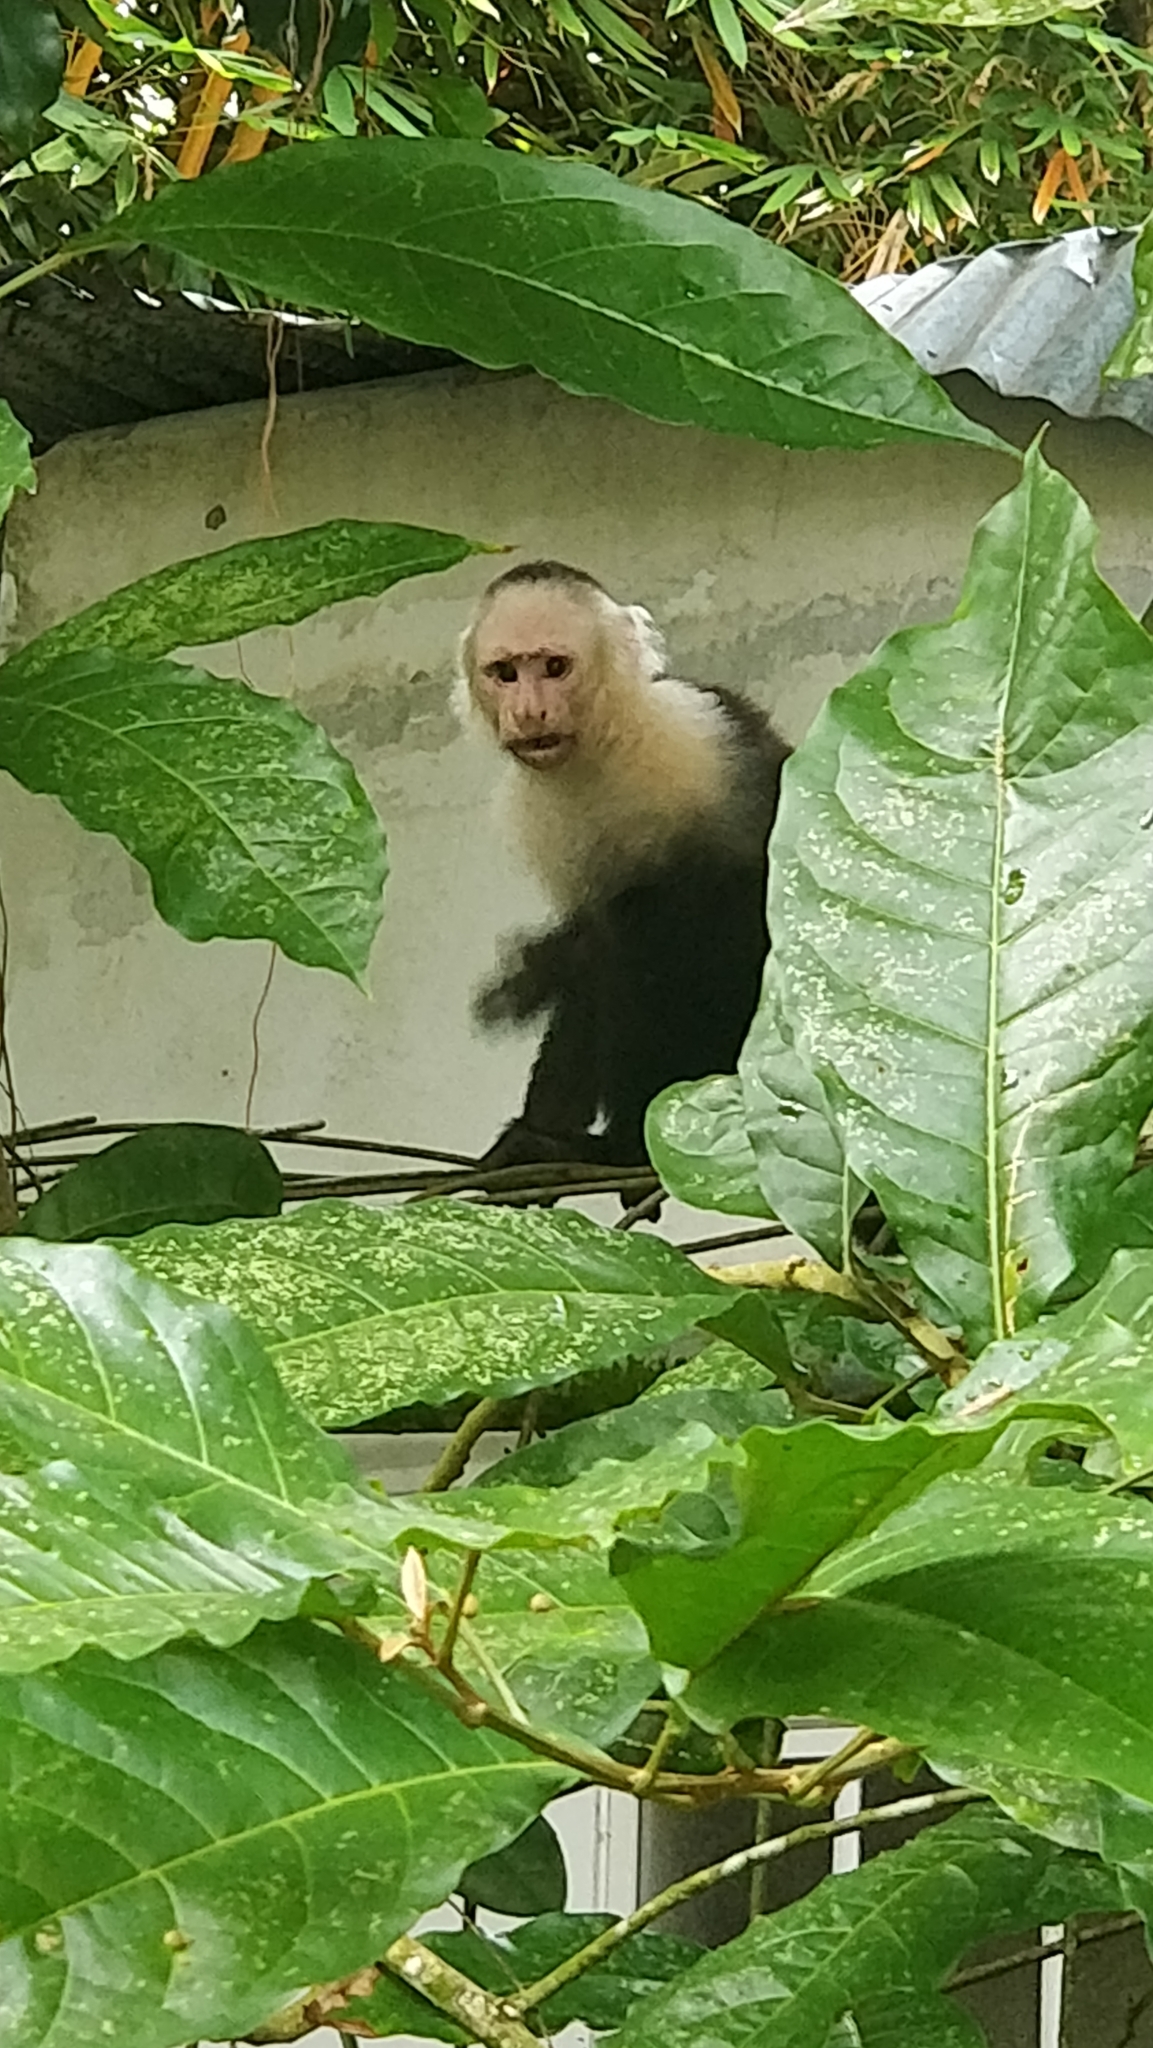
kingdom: Animalia
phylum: Chordata
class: Mammalia
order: Primates
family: Cebidae
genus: Cebus
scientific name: Cebus imitator
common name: Panamanian white-faced capuchin
